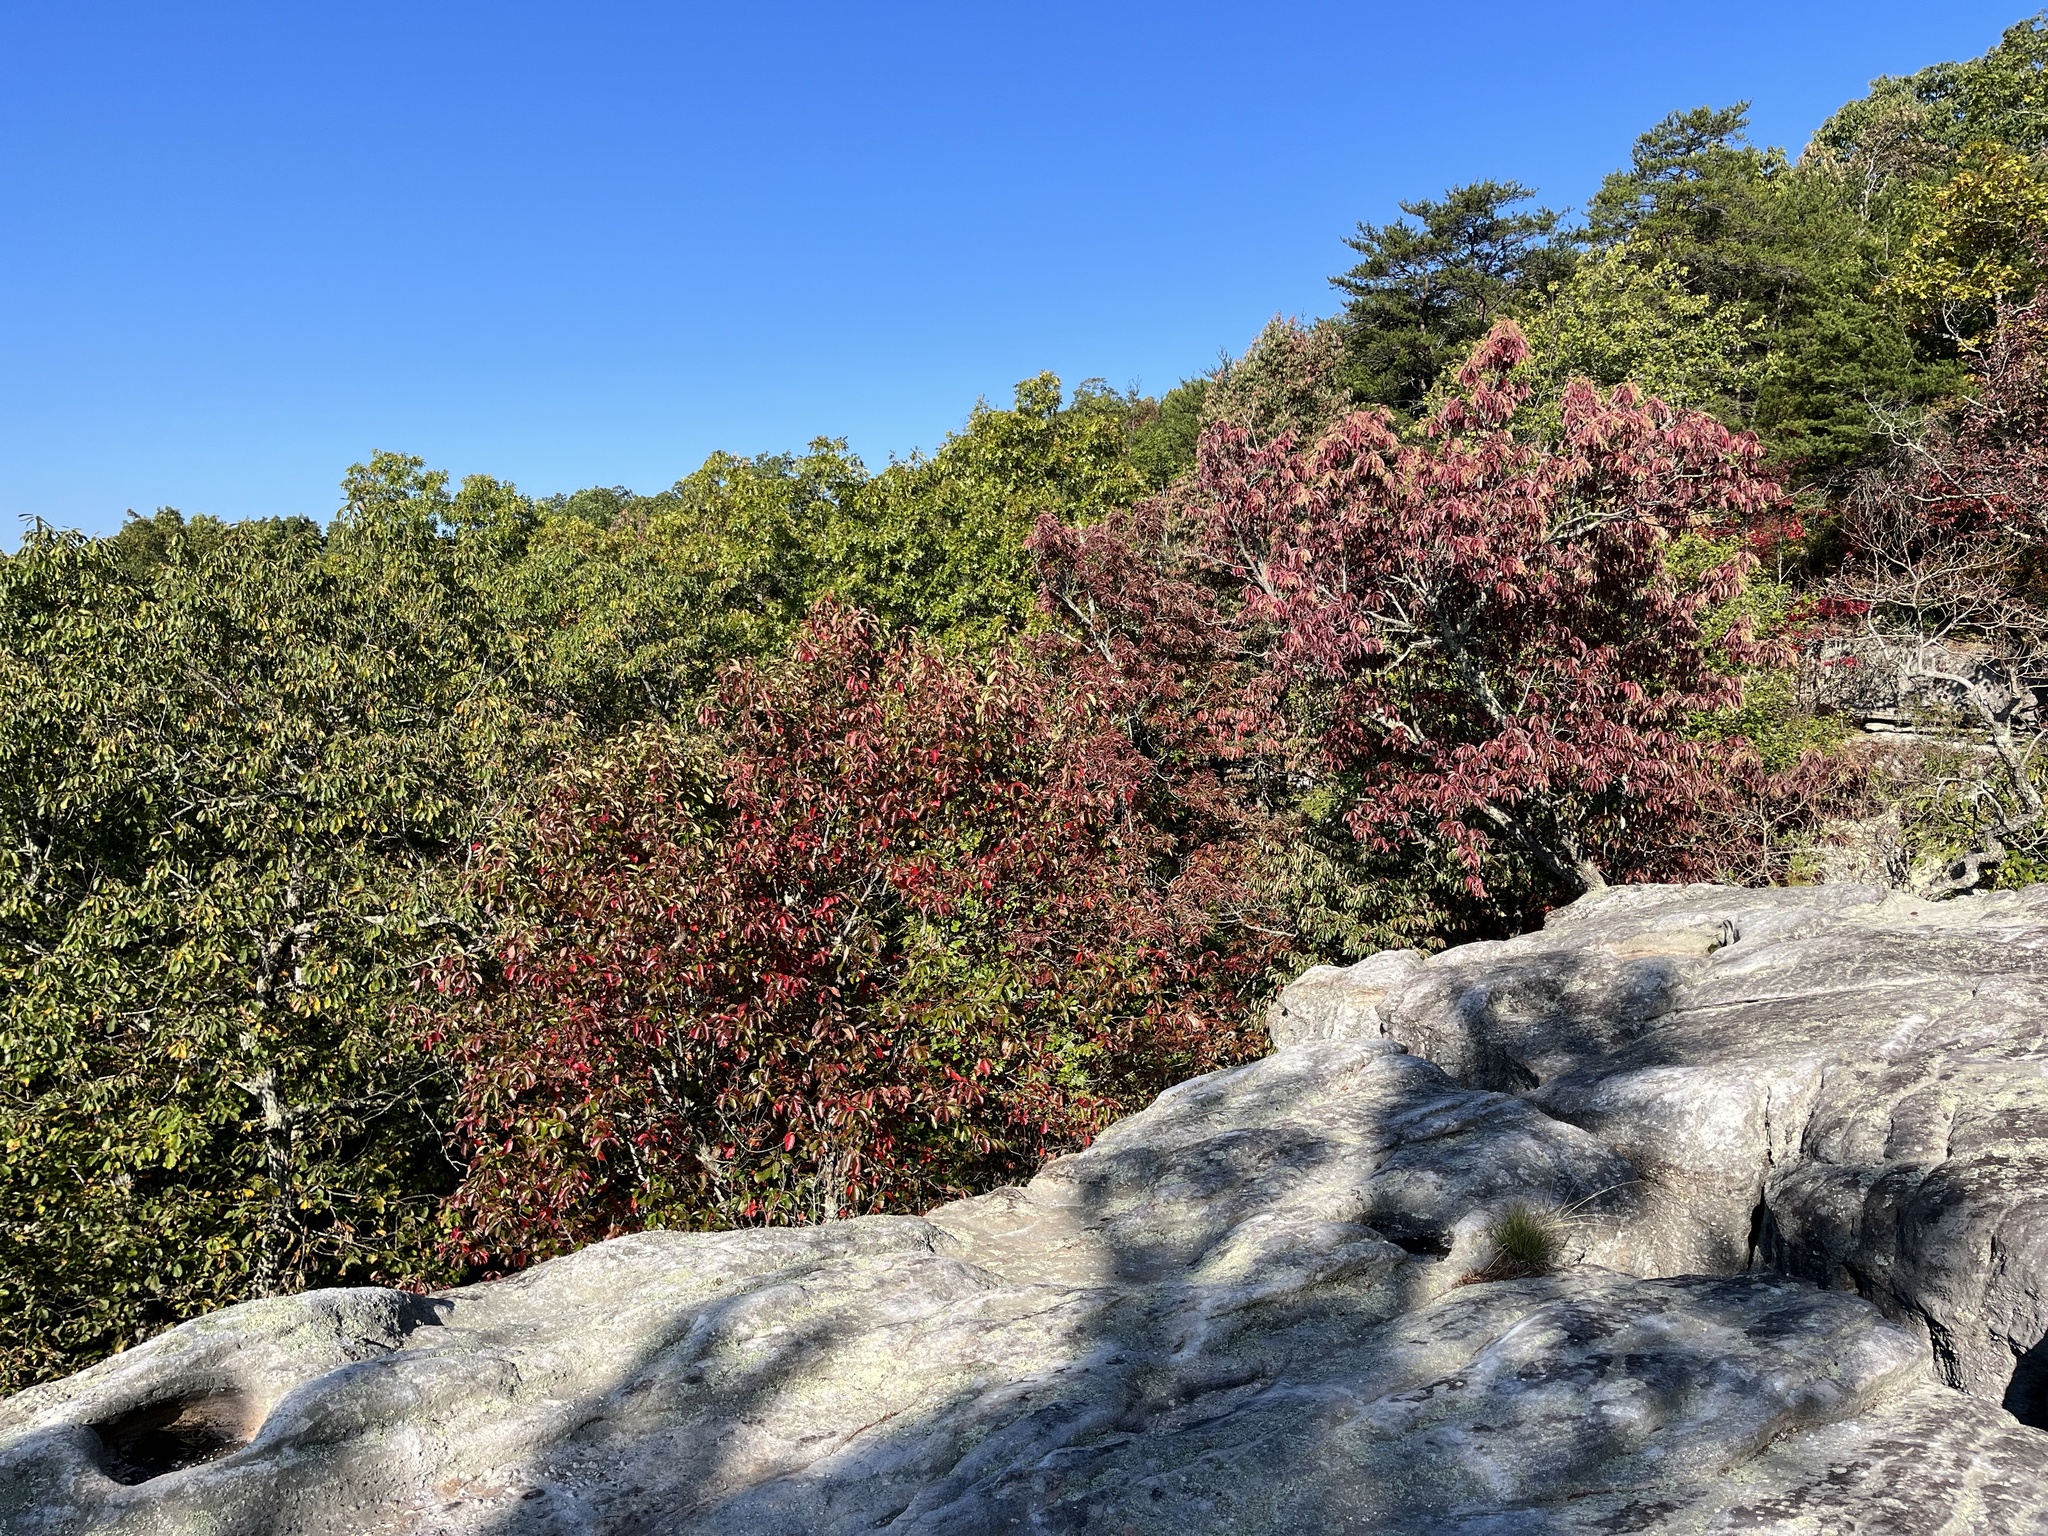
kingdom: Plantae
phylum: Tracheophyta
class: Magnoliopsida
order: Ericales
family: Ericaceae
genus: Oxydendrum
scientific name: Oxydendrum arboreum
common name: Sourwood
